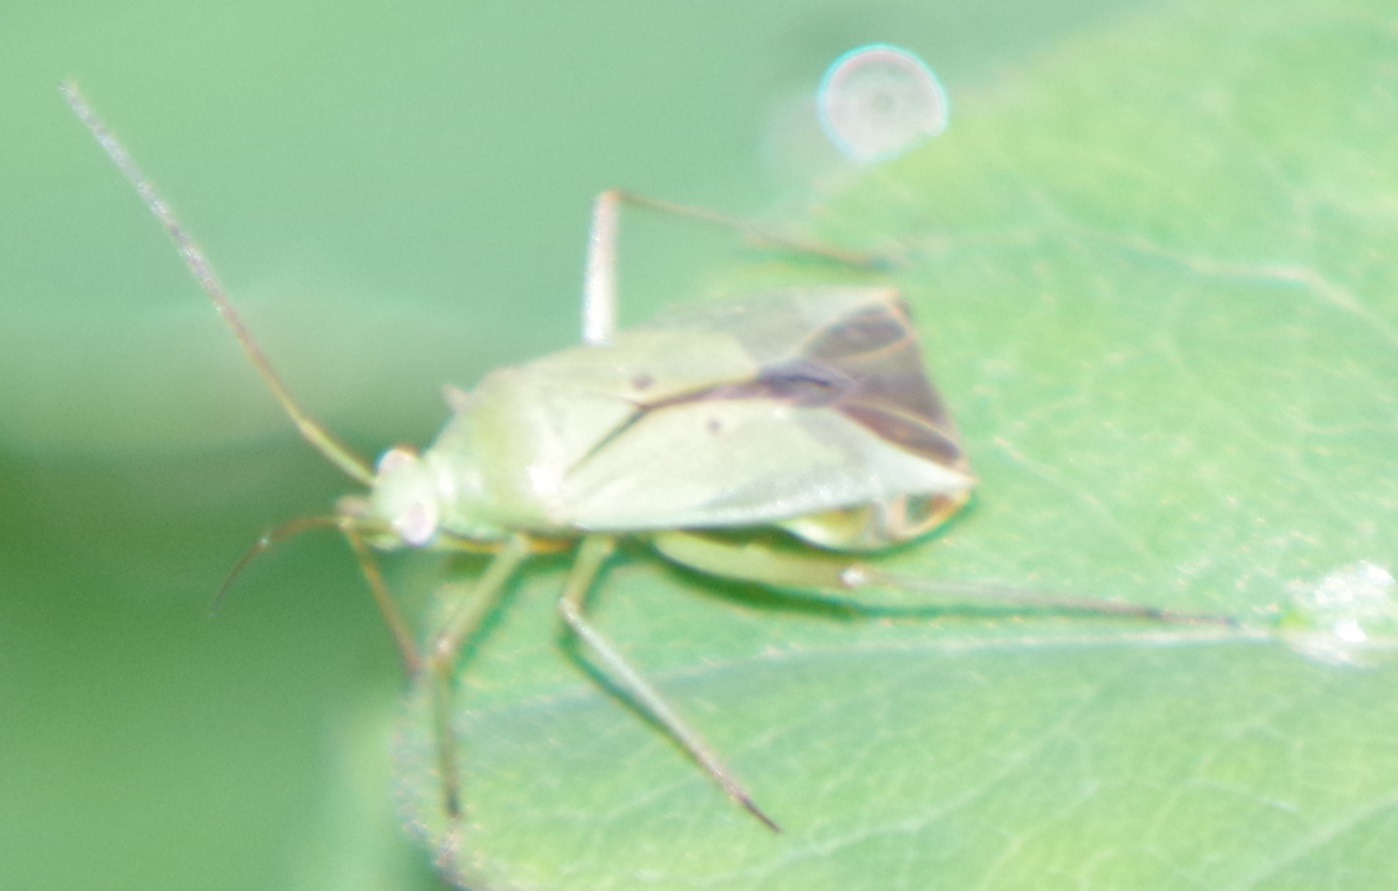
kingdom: Animalia
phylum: Arthropoda
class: Insecta
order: Hemiptera
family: Miridae
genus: Closterotomus
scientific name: Closterotomus norvegicus
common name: Plant bug
